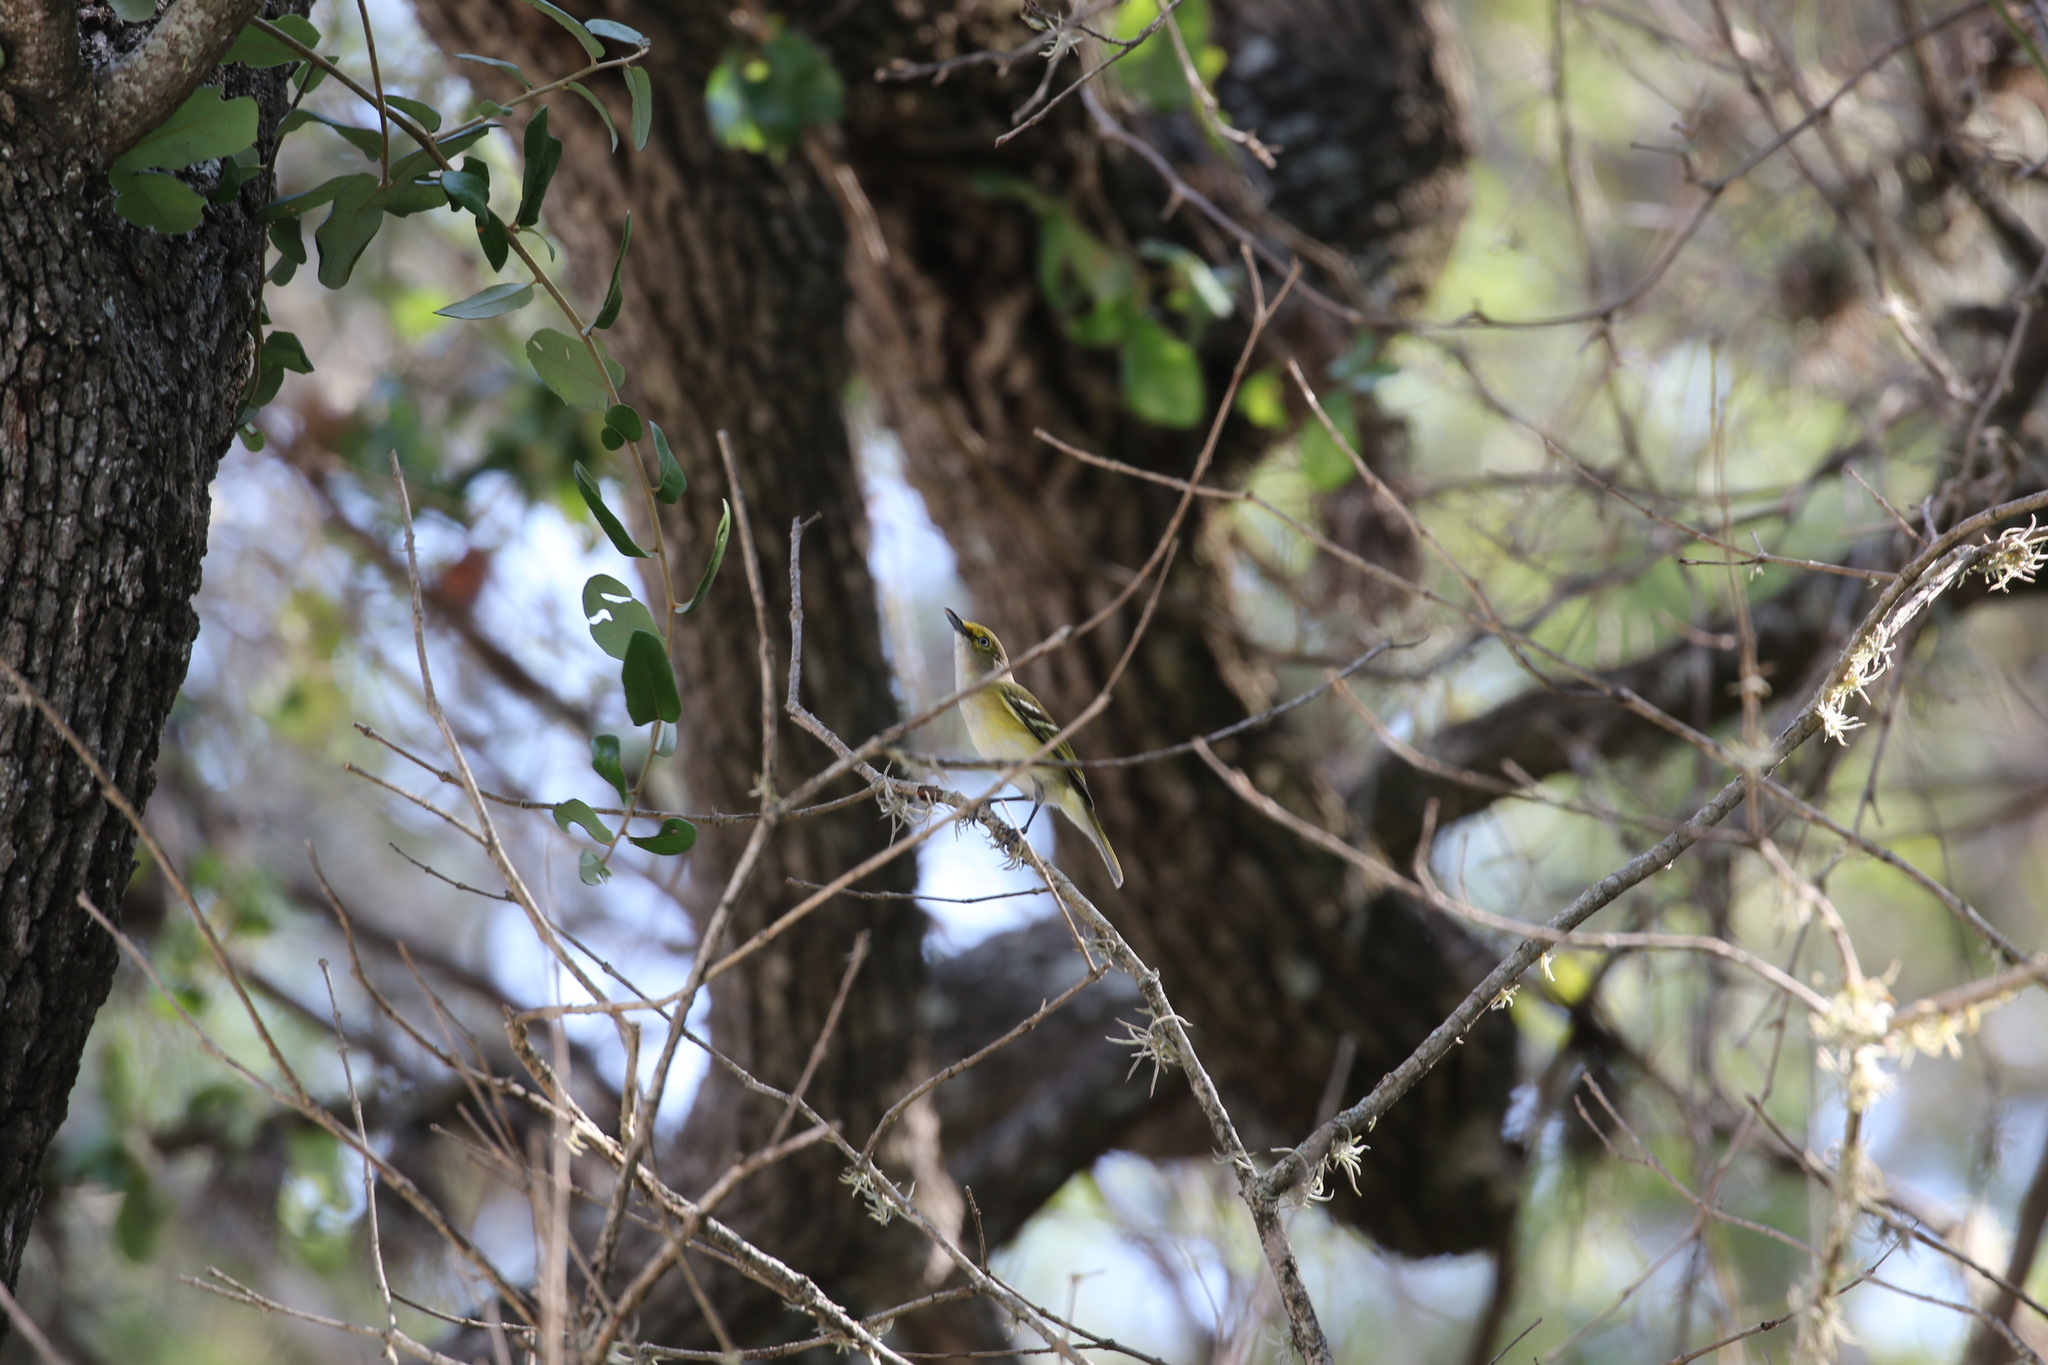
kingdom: Animalia
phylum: Chordata
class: Aves
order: Passeriformes
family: Vireonidae
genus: Vireo
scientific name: Vireo griseus
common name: White-eyed vireo
